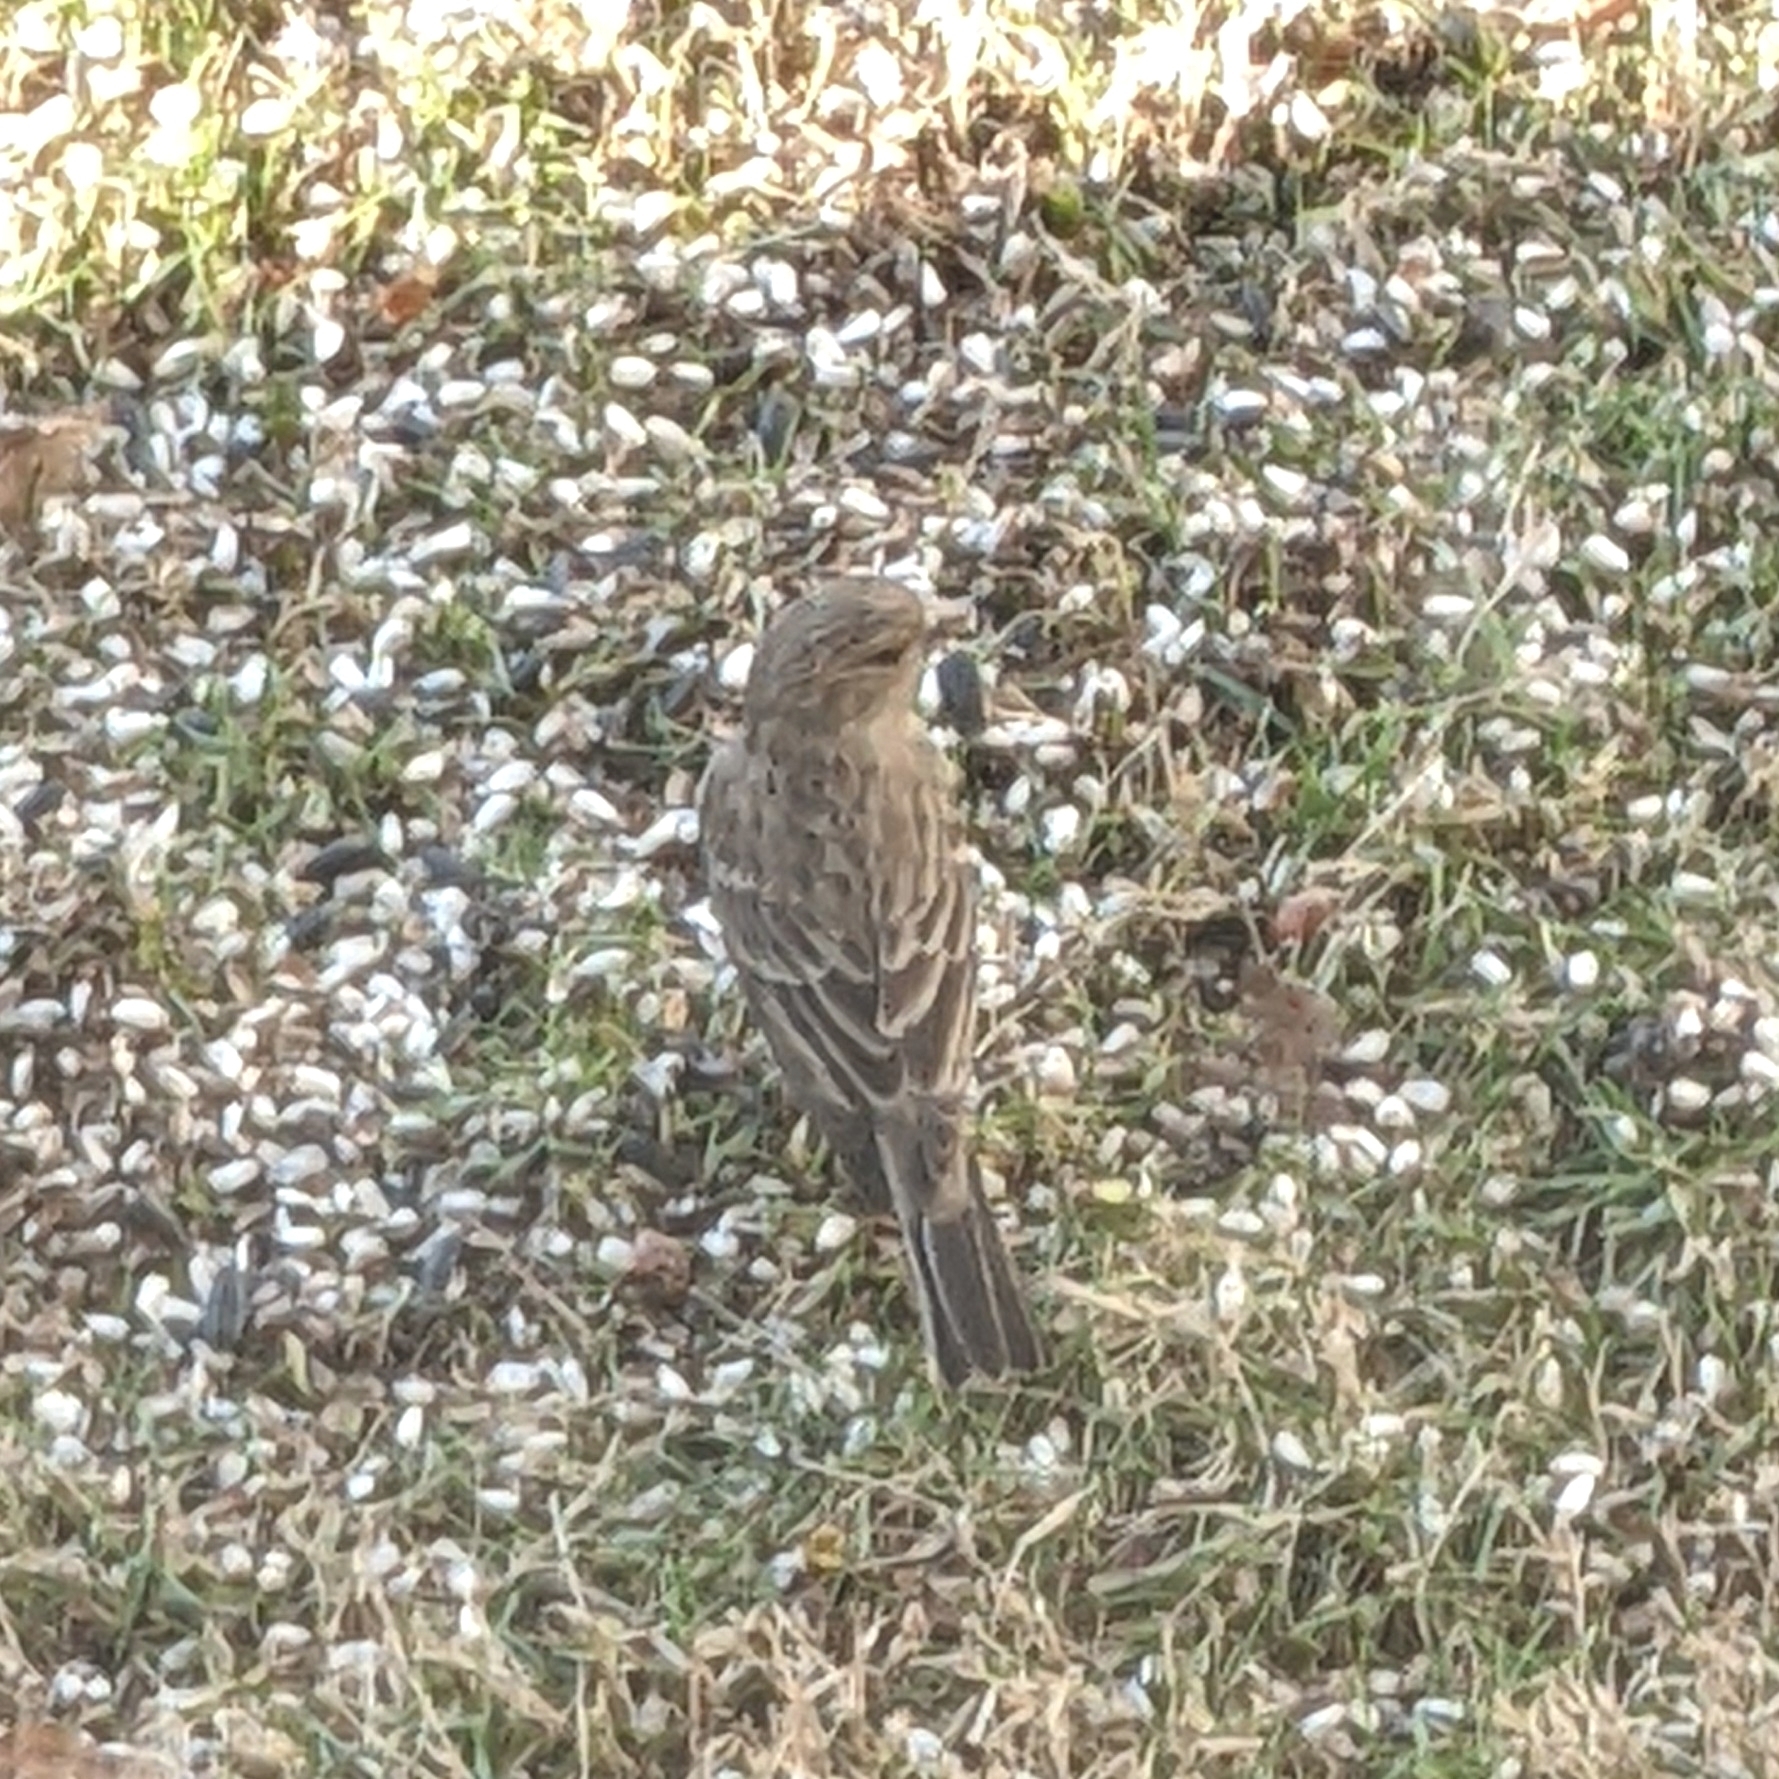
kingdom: Animalia
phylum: Chordata
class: Aves
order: Passeriformes
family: Fringillidae
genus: Haemorhous
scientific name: Haemorhous mexicanus
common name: House finch
